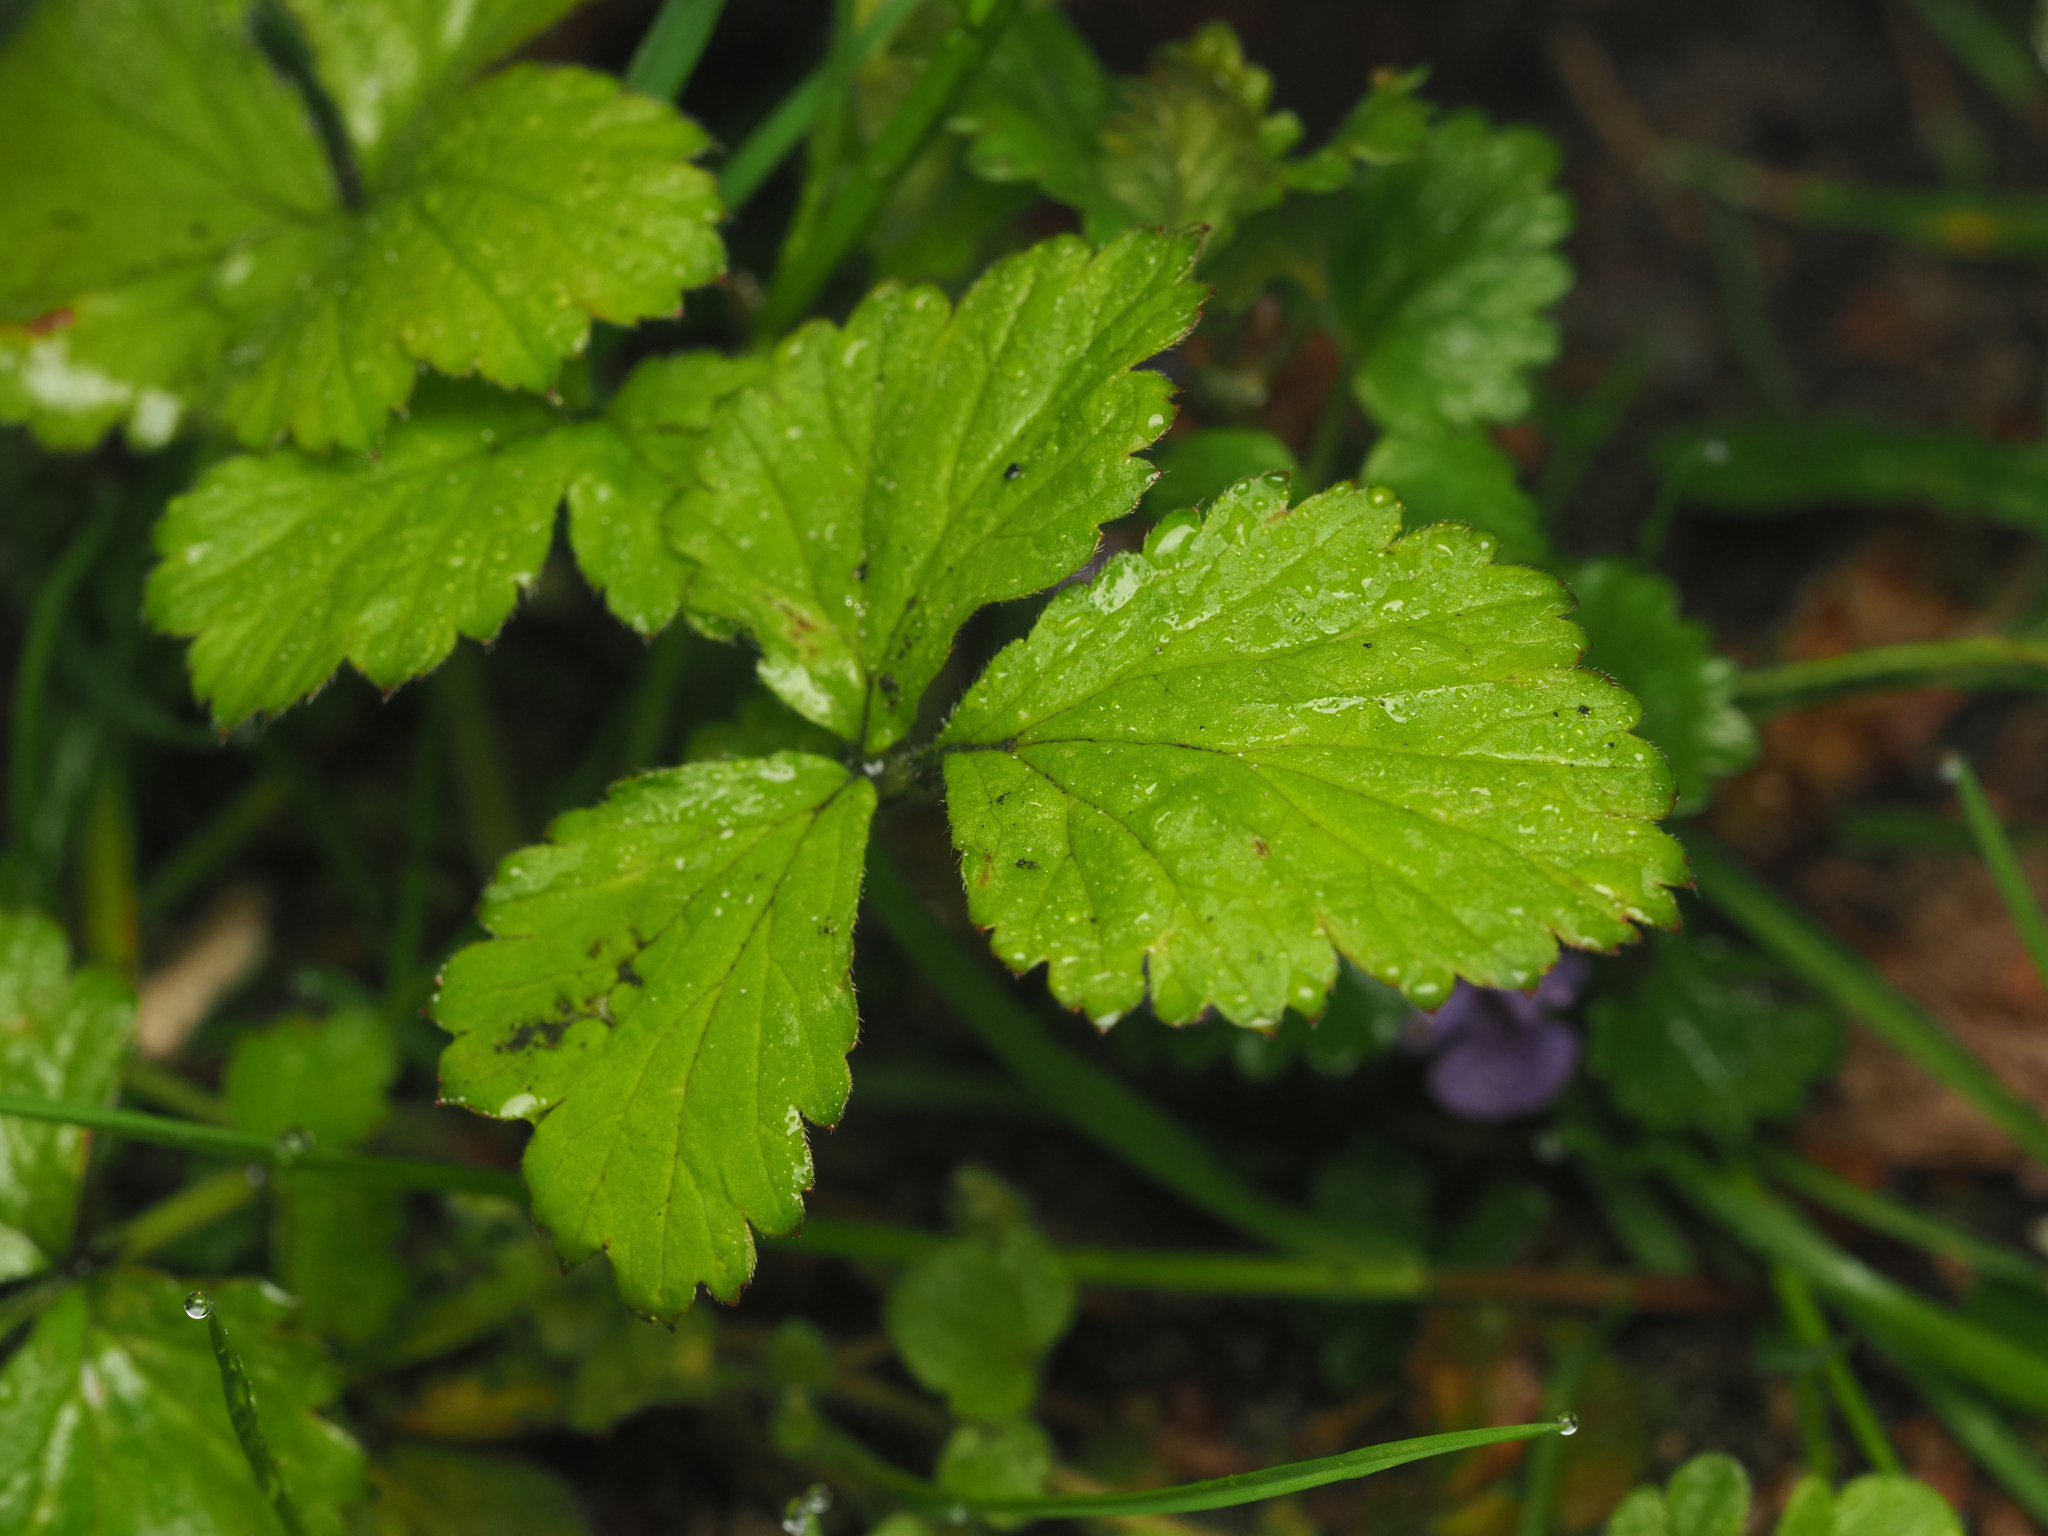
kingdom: Plantae
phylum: Tracheophyta
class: Magnoliopsida
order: Rosales
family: Rosaceae
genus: Geum
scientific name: Geum urbanum
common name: Wood avens
